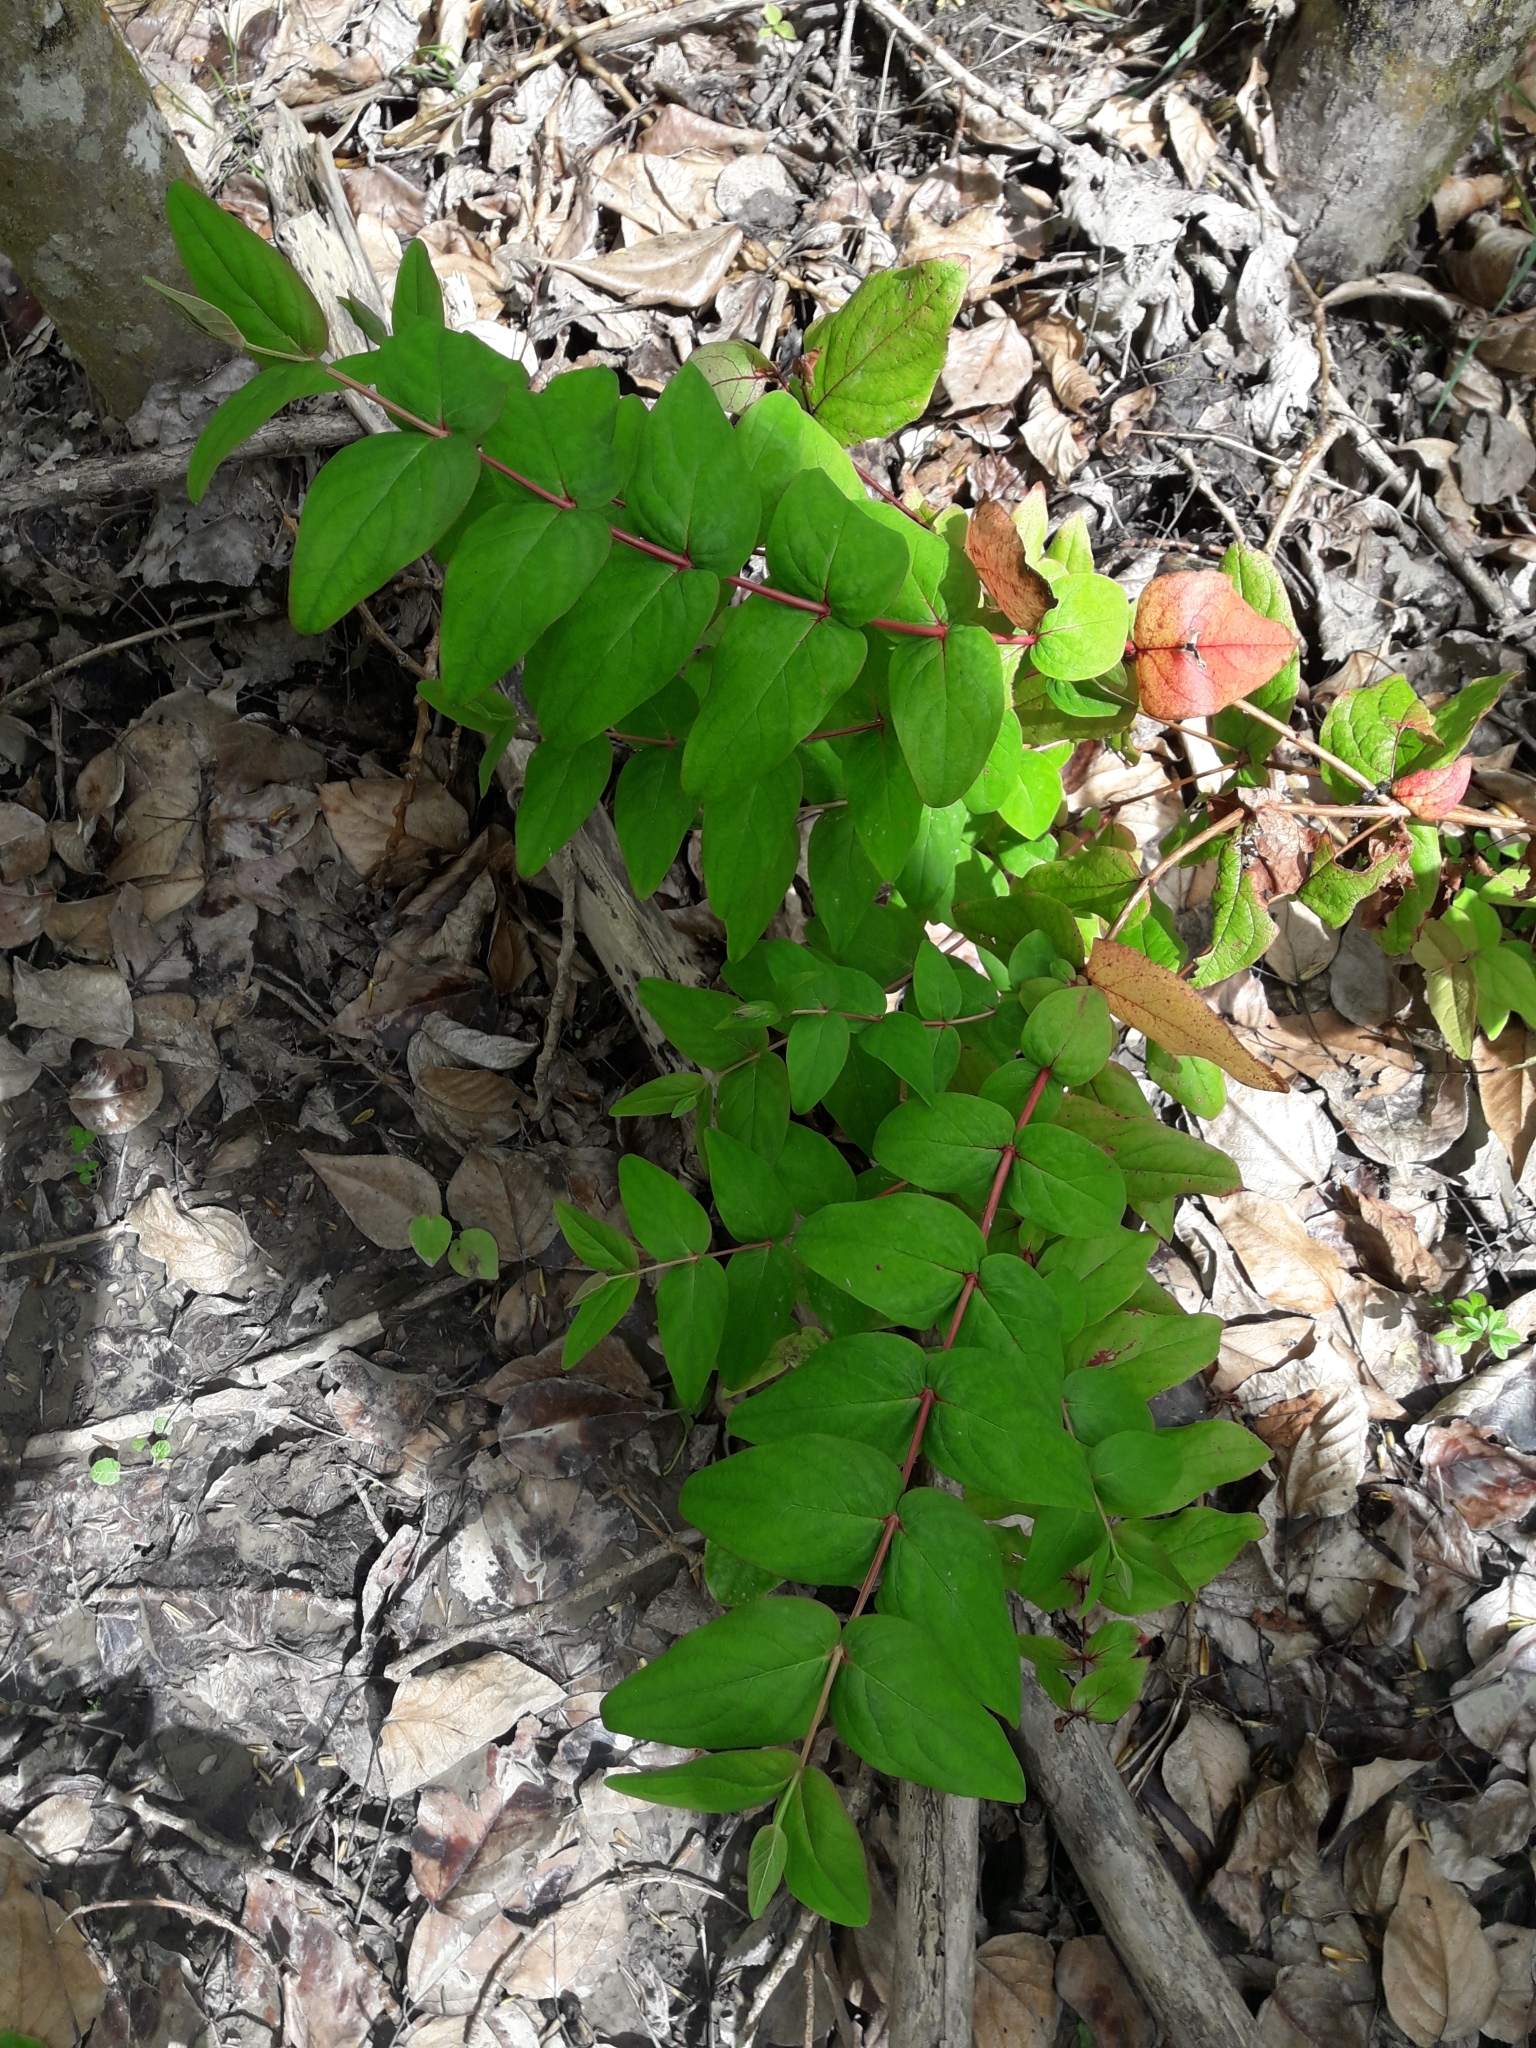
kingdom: Plantae
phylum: Tracheophyta
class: Magnoliopsida
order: Malpighiales
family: Hypericaceae
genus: Hypericum
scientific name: Hypericum androsaemum
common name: Sweet-amber
